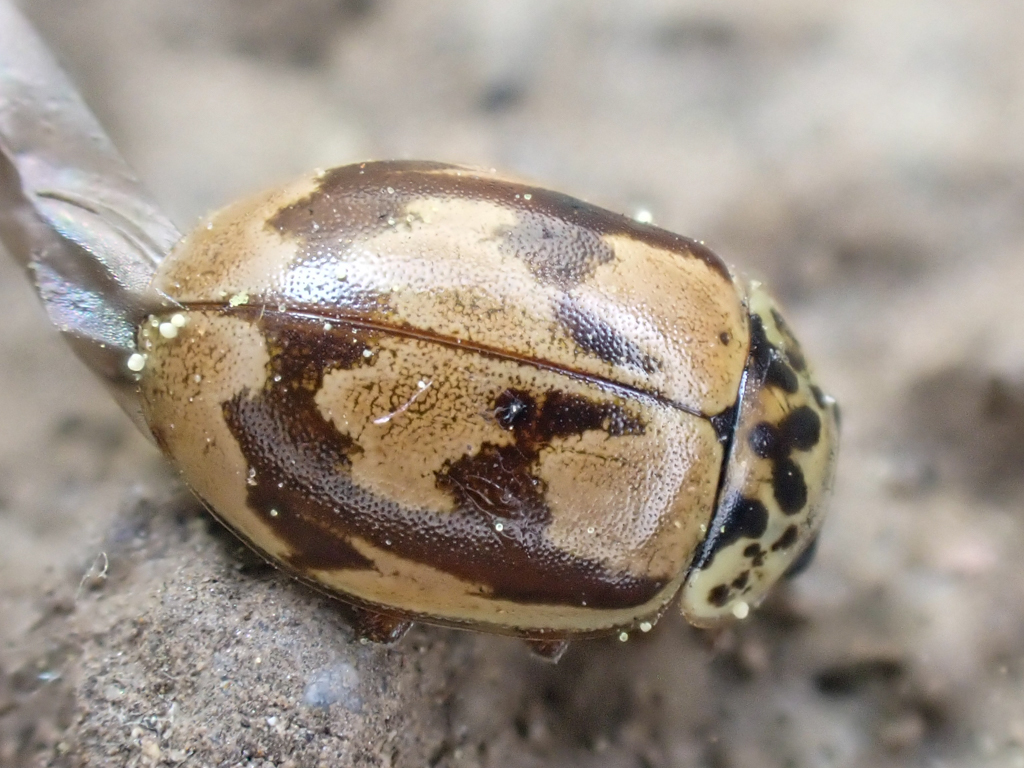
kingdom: Animalia
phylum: Arthropoda
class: Insecta
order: Coleoptera
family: Coccinellidae
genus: Mulsantina
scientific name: Mulsantina picta
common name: Painted ladybird
